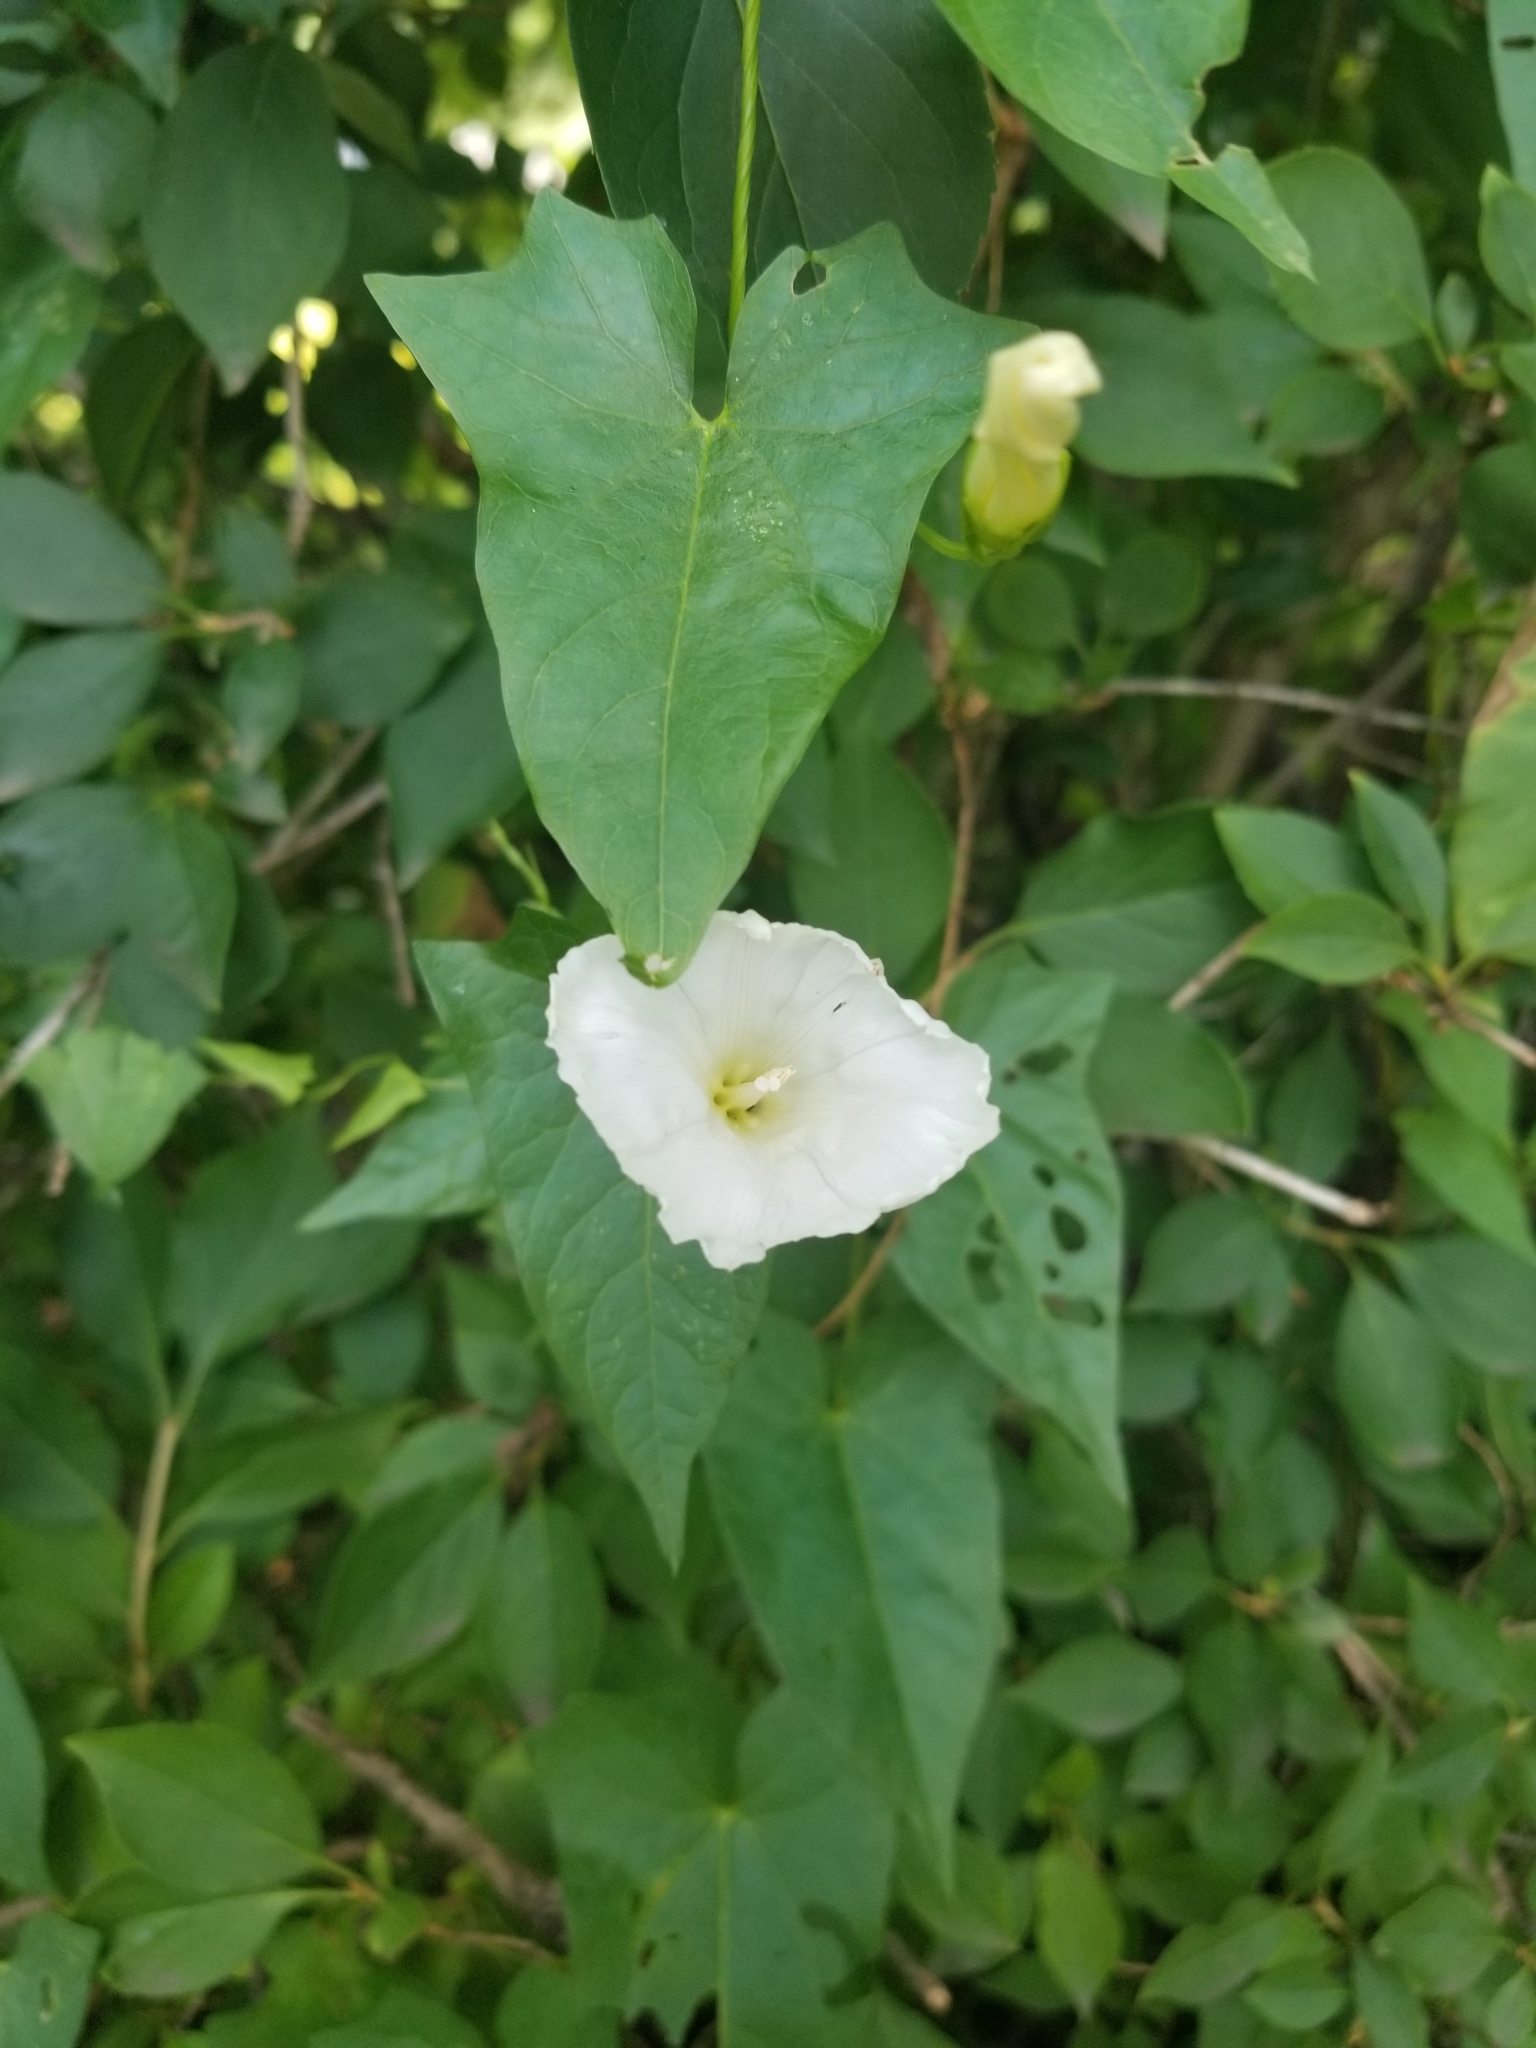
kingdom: Plantae
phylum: Tracheophyta
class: Magnoliopsida
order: Solanales
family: Convolvulaceae
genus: Calystegia
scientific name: Calystegia sepium
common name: Hedge bindweed
